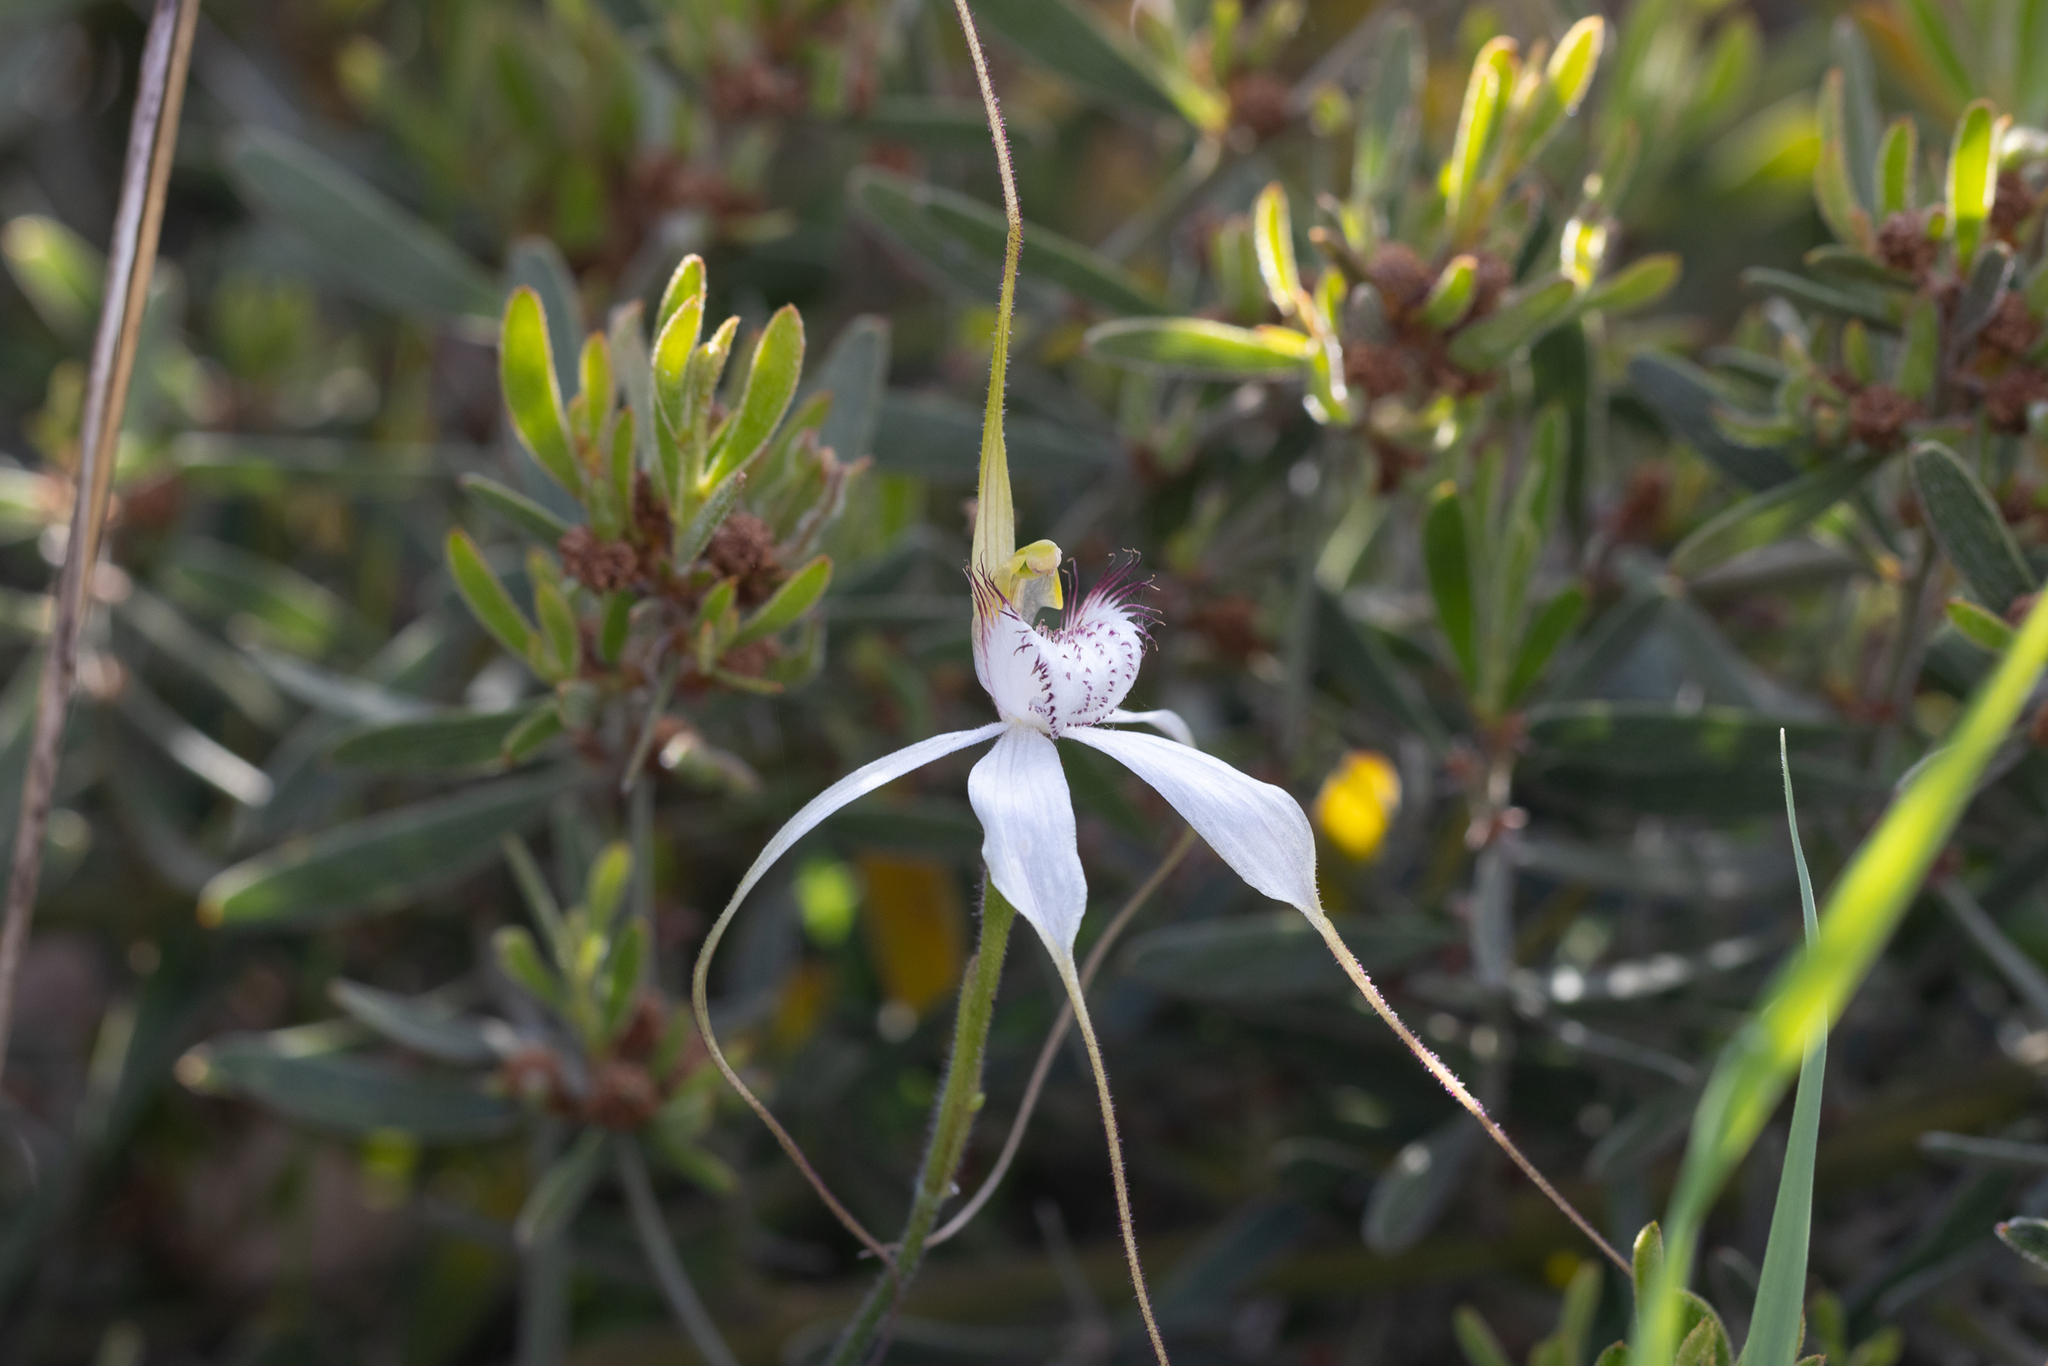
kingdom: Plantae
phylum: Tracheophyta
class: Liliopsida
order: Asparagales
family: Orchidaceae
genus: Caladenia
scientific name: Caladenia longicauda
